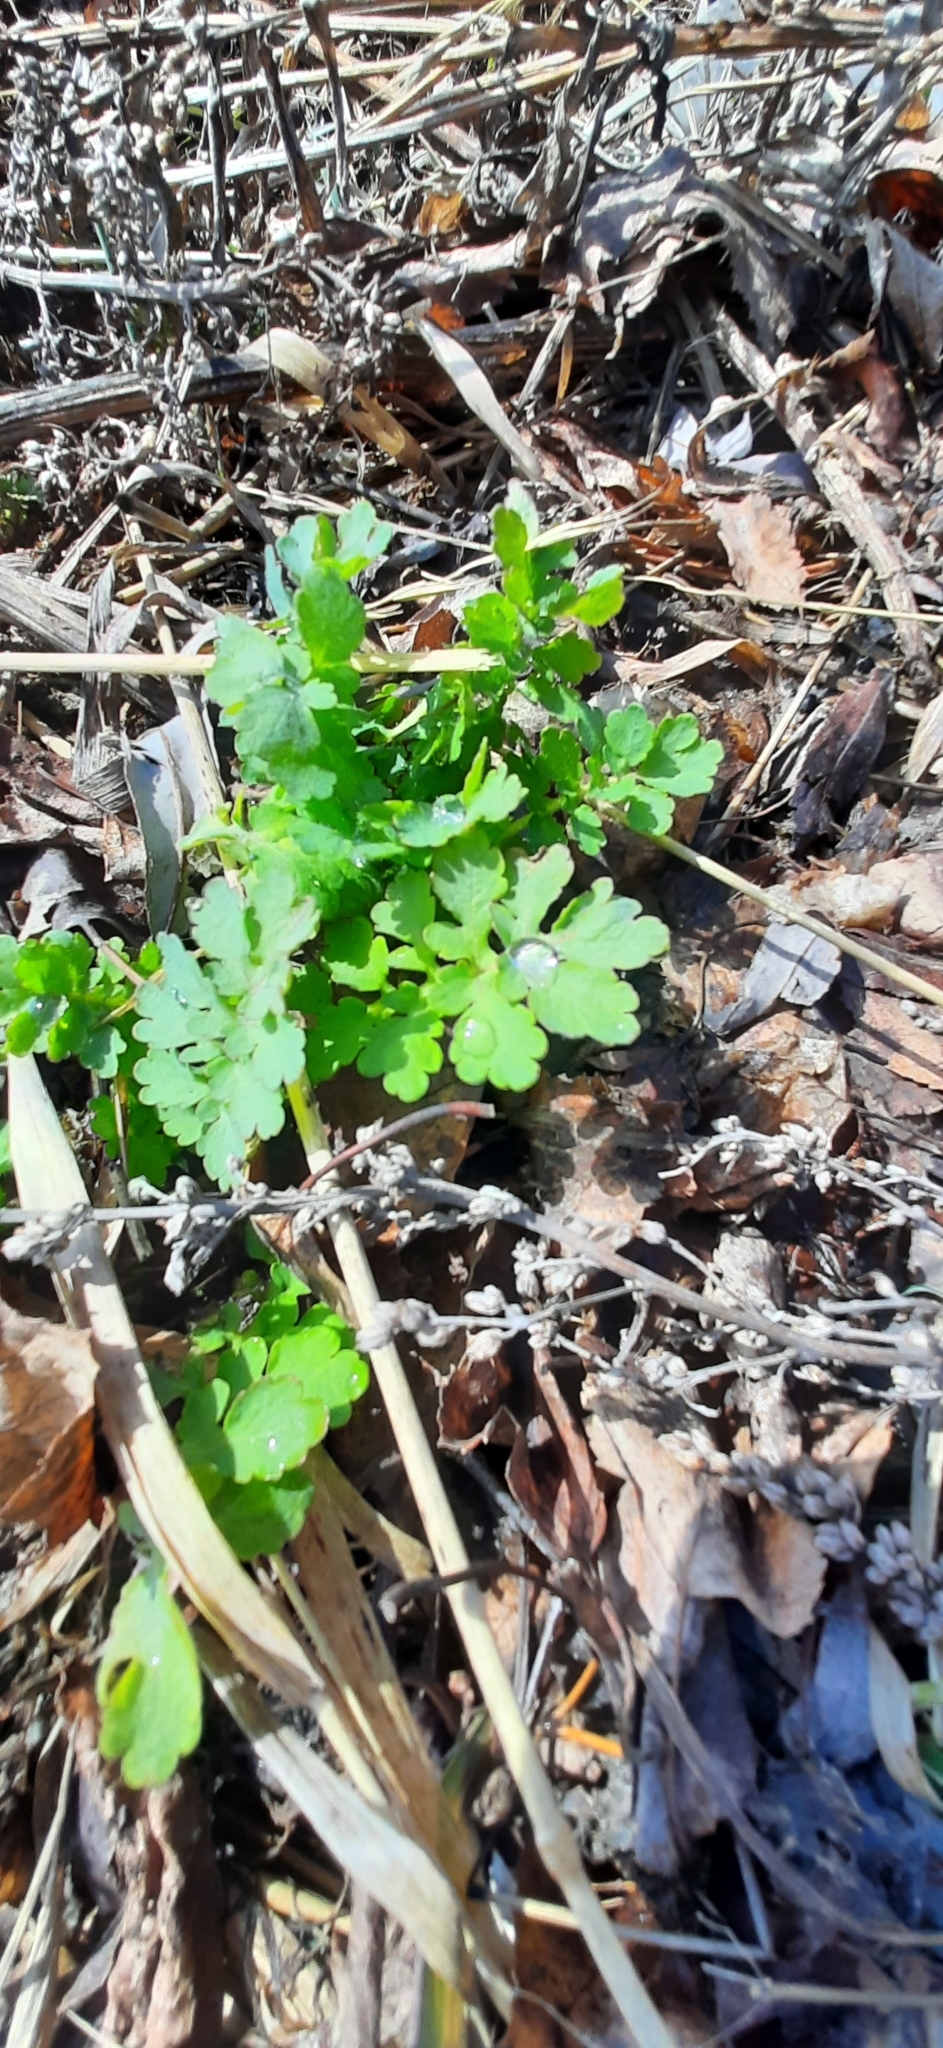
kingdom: Plantae
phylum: Tracheophyta
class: Magnoliopsida
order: Ranunculales
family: Papaveraceae
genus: Chelidonium
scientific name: Chelidonium majus
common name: Greater celandine
